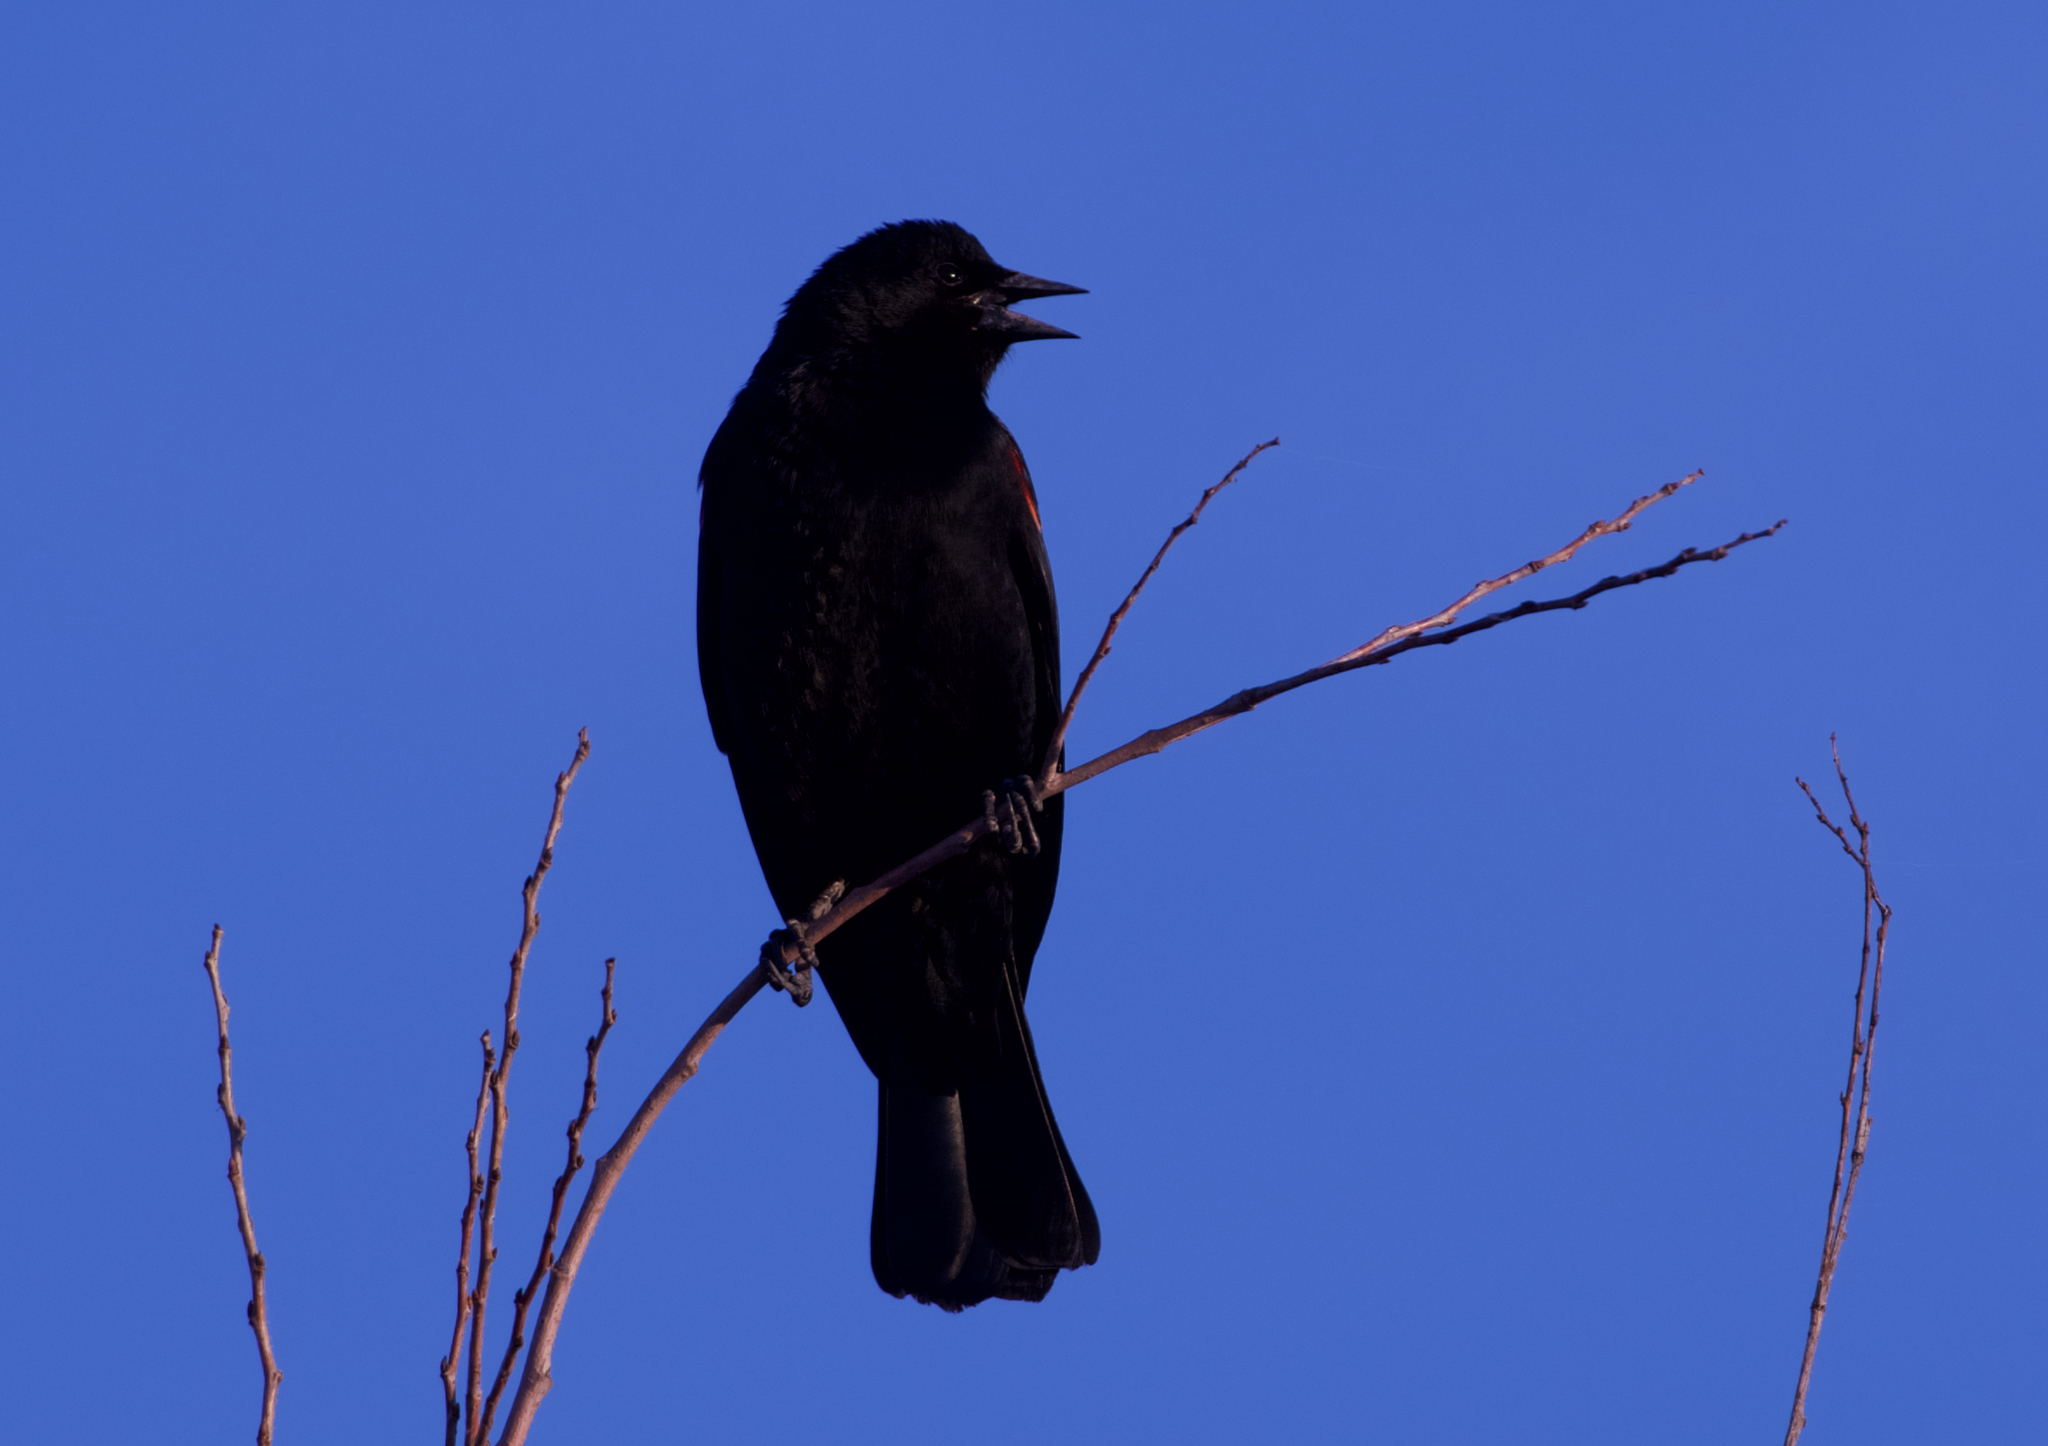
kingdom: Animalia
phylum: Chordata
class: Aves
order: Passeriformes
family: Icteridae
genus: Agelaius
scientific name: Agelaius phoeniceus
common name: Red-winged blackbird
